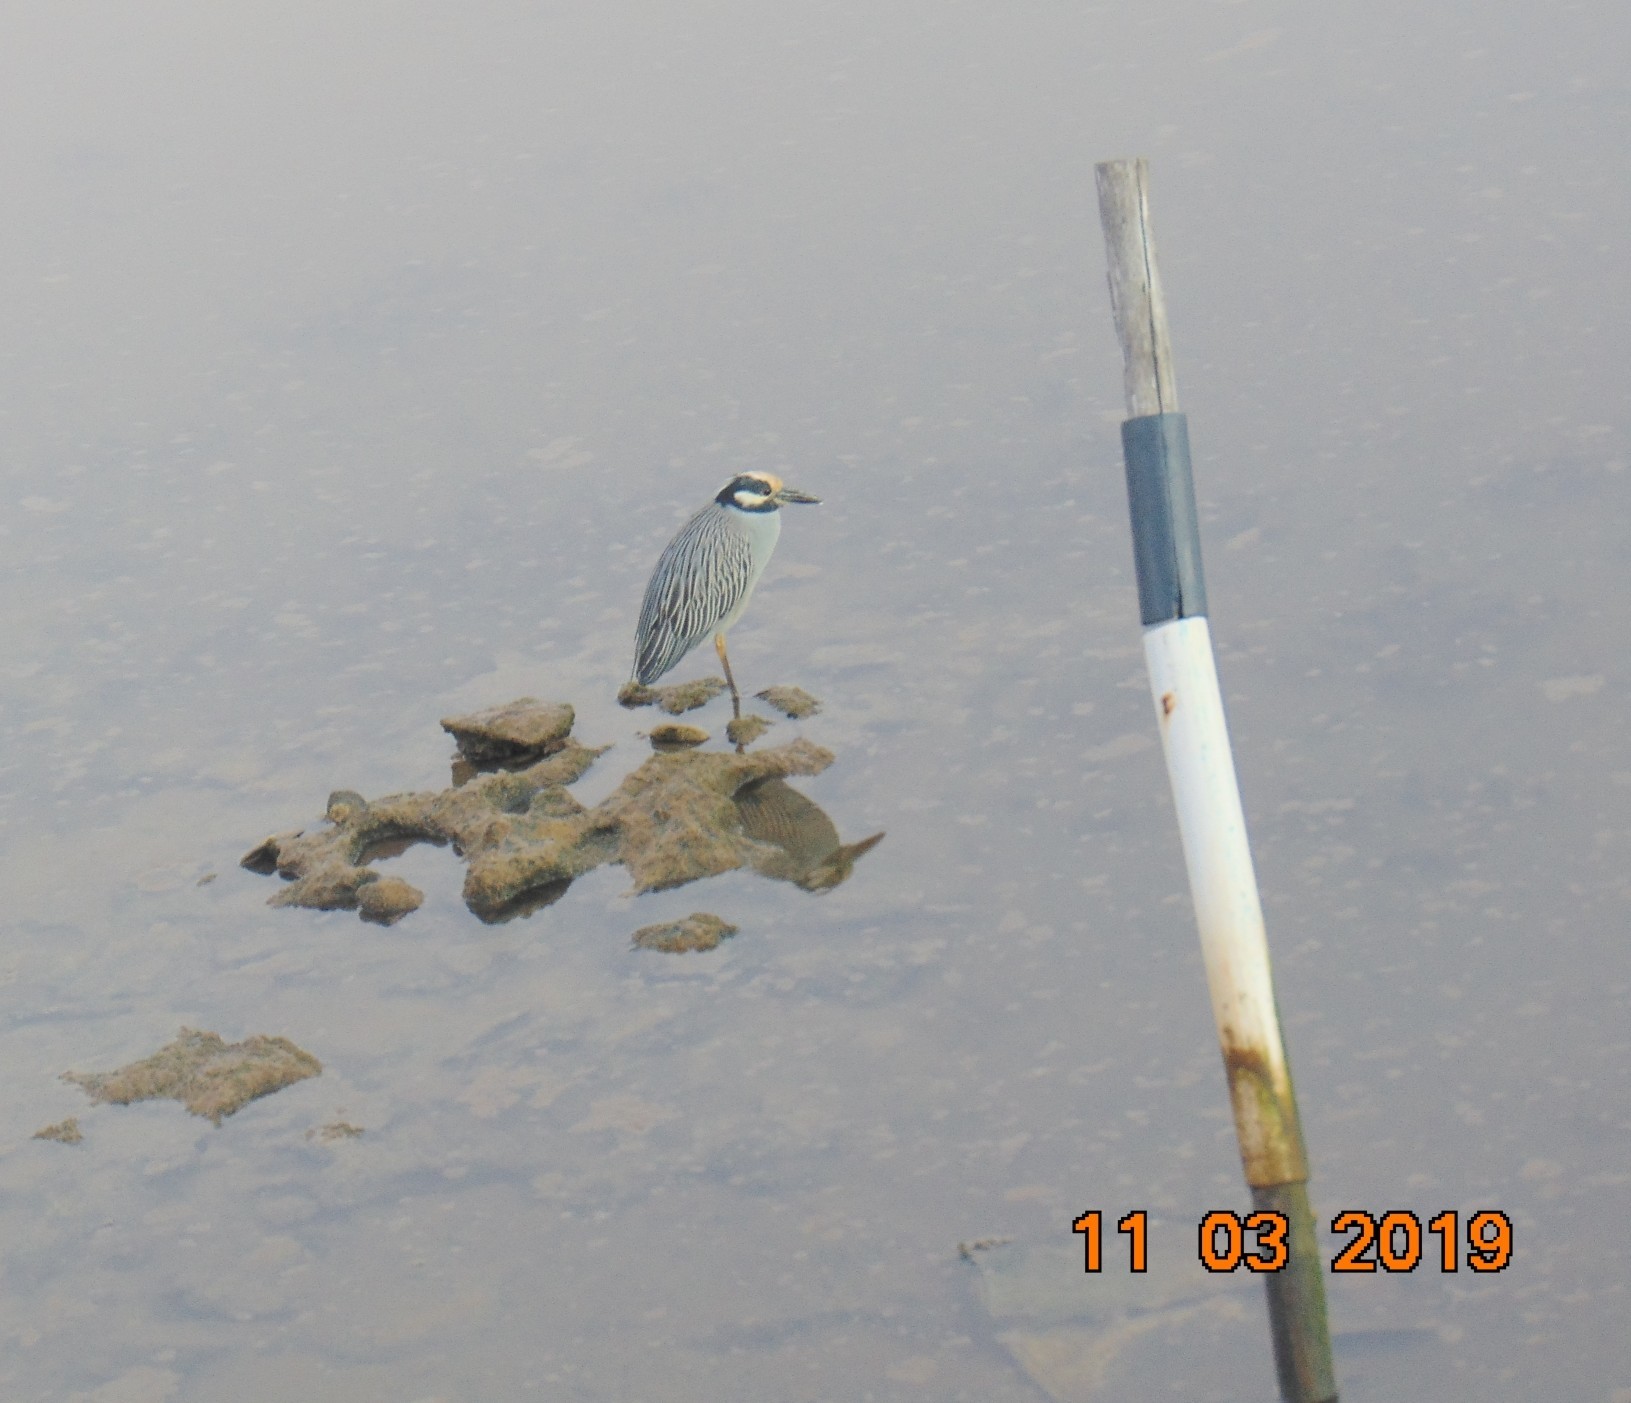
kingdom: Animalia
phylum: Chordata
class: Aves
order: Pelecaniformes
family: Ardeidae
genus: Nyctanassa
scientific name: Nyctanassa violacea
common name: Yellow-crowned night heron
